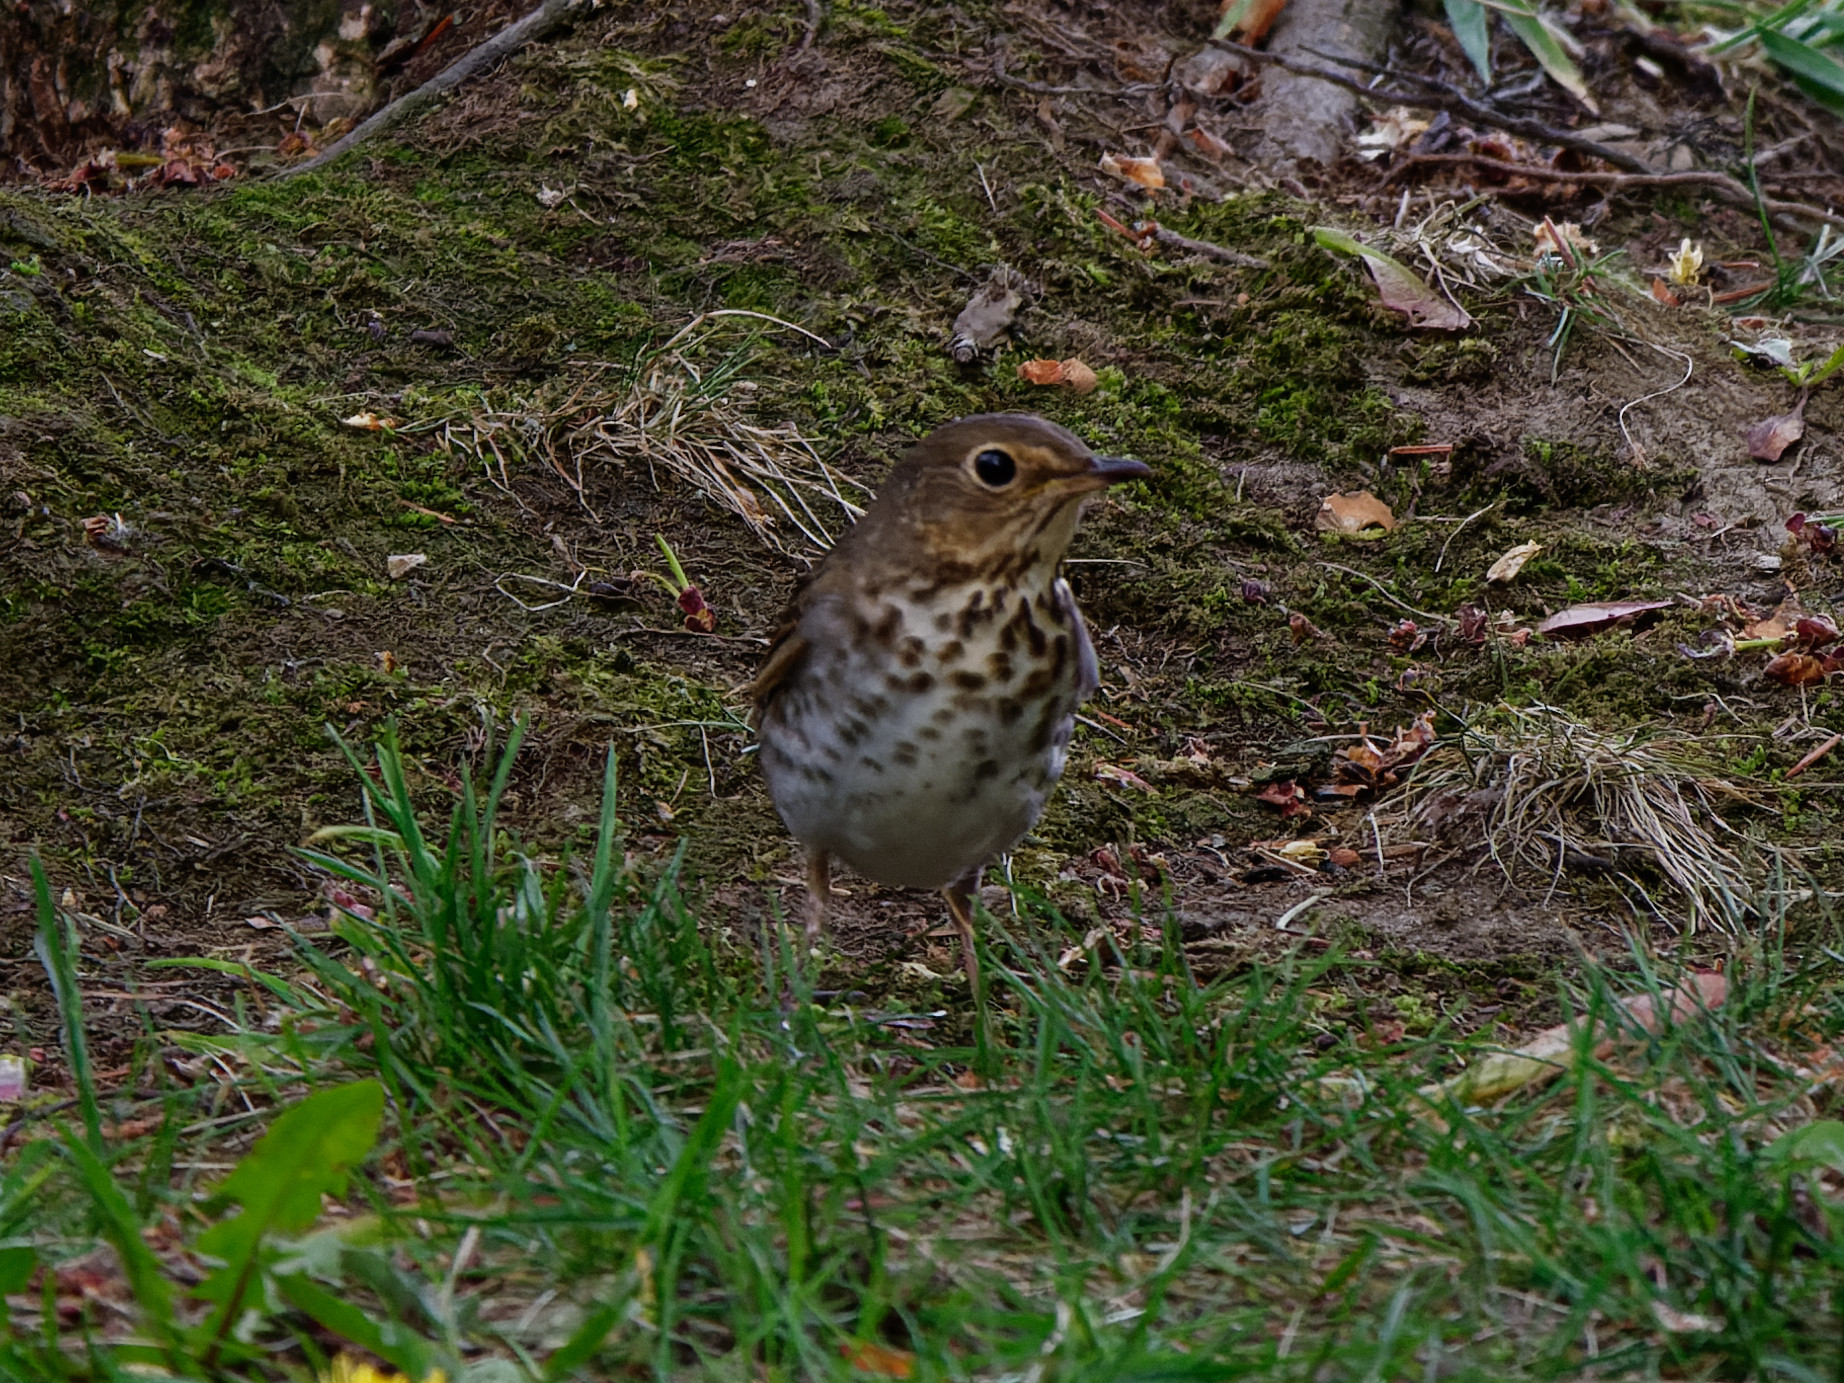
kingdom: Animalia
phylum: Chordata
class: Aves
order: Passeriformes
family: Turdidae
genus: Catharus
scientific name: Catharus ustulatus
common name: Swainson's thrush
